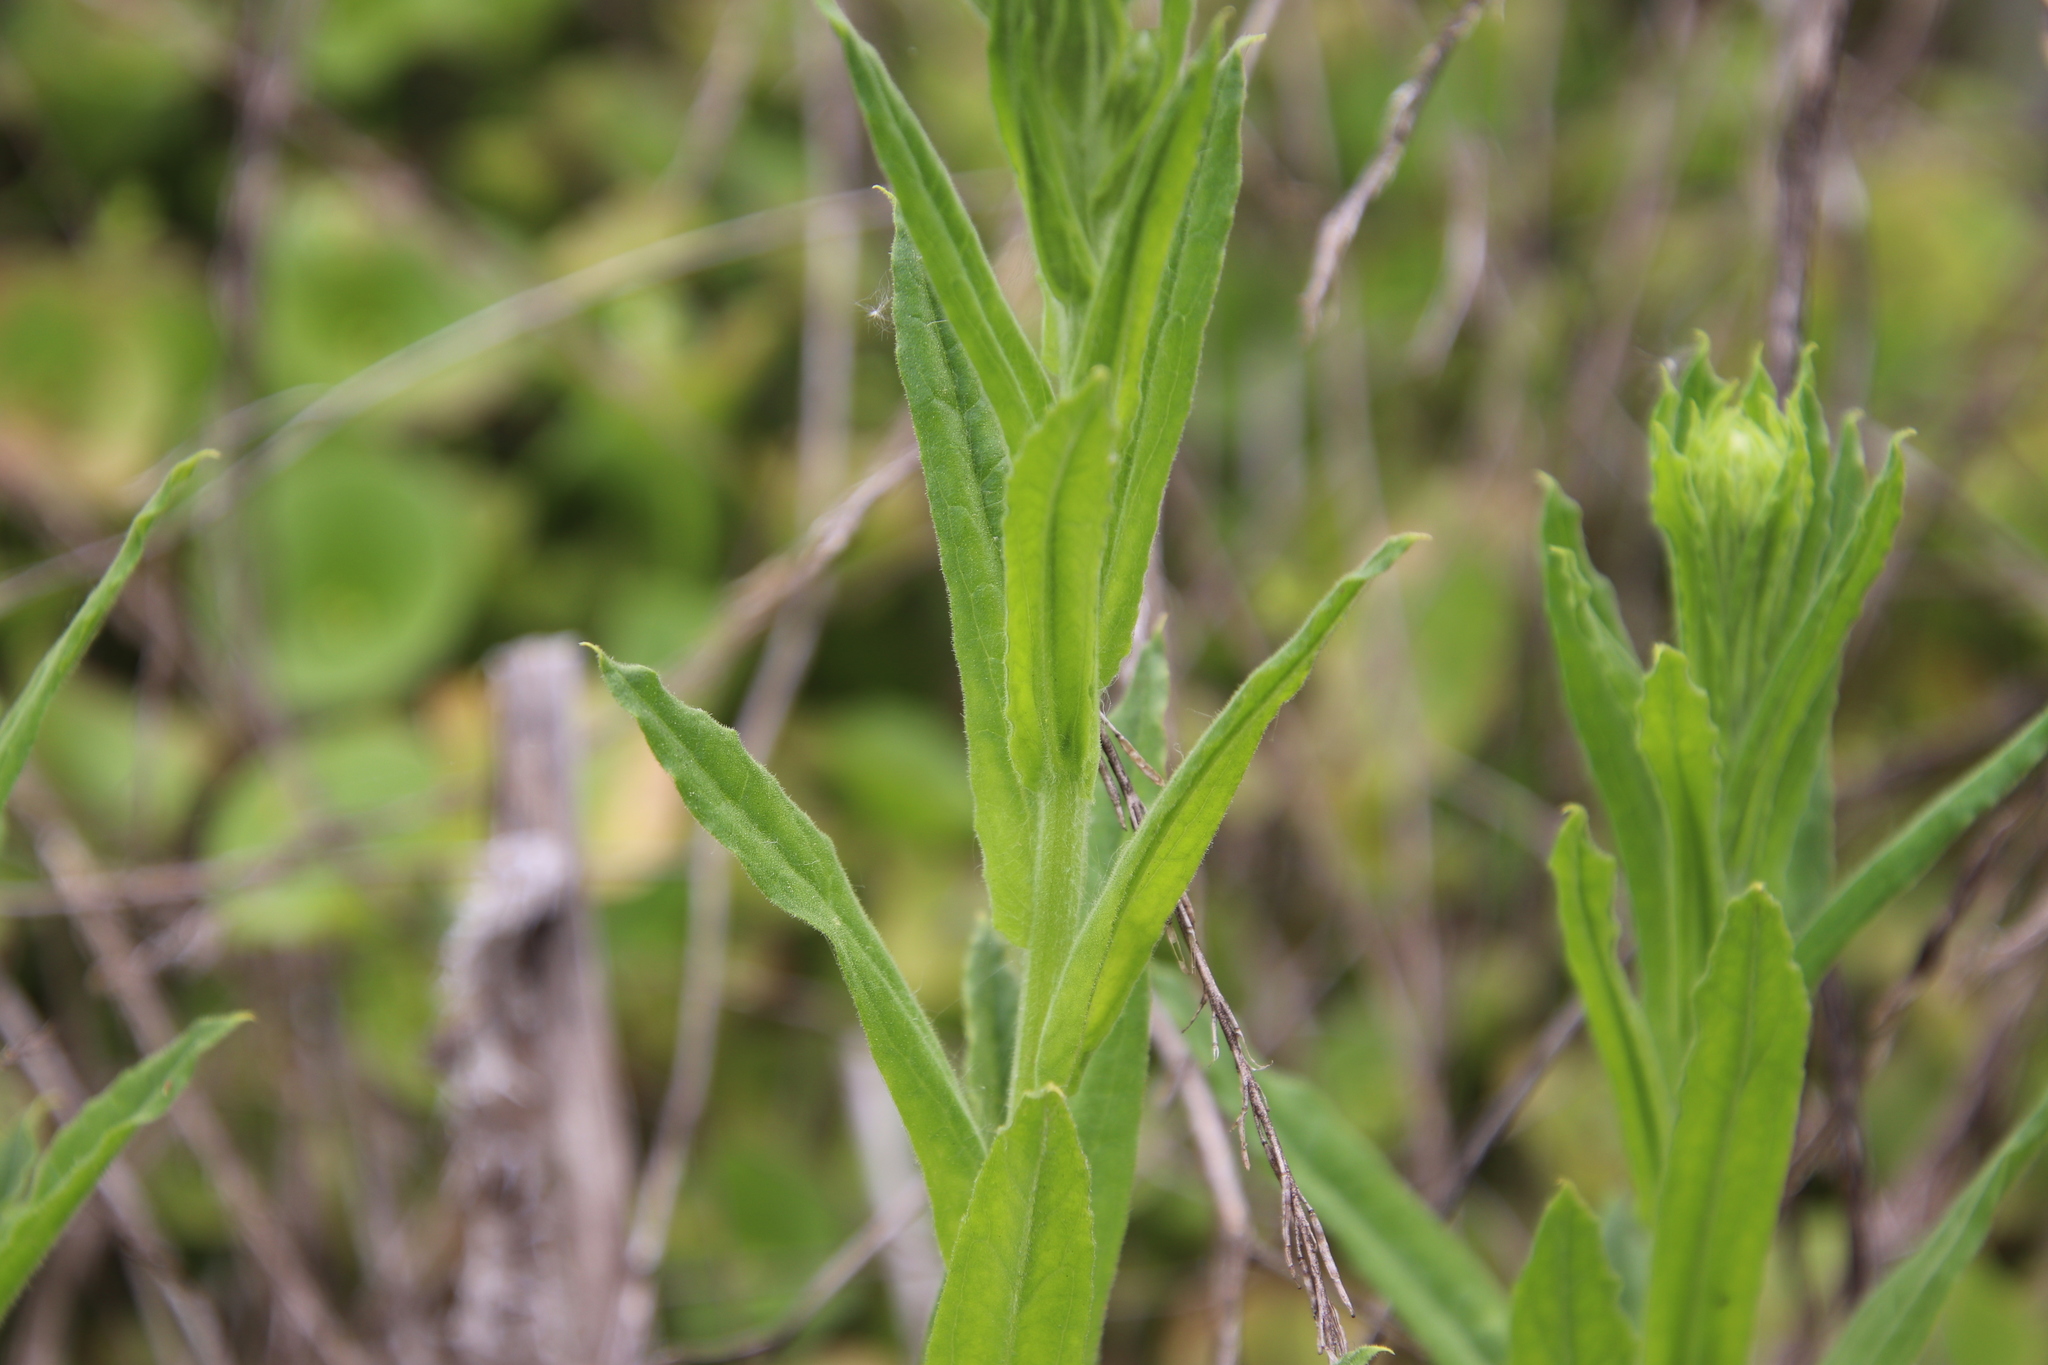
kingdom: Plantae
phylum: Tracheophyta
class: Magnoliopsida
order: Asterales
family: Asteraceae
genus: Pseudognaphalium
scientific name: Pseudognaphalium californicum
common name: California rabbit-tobacco
